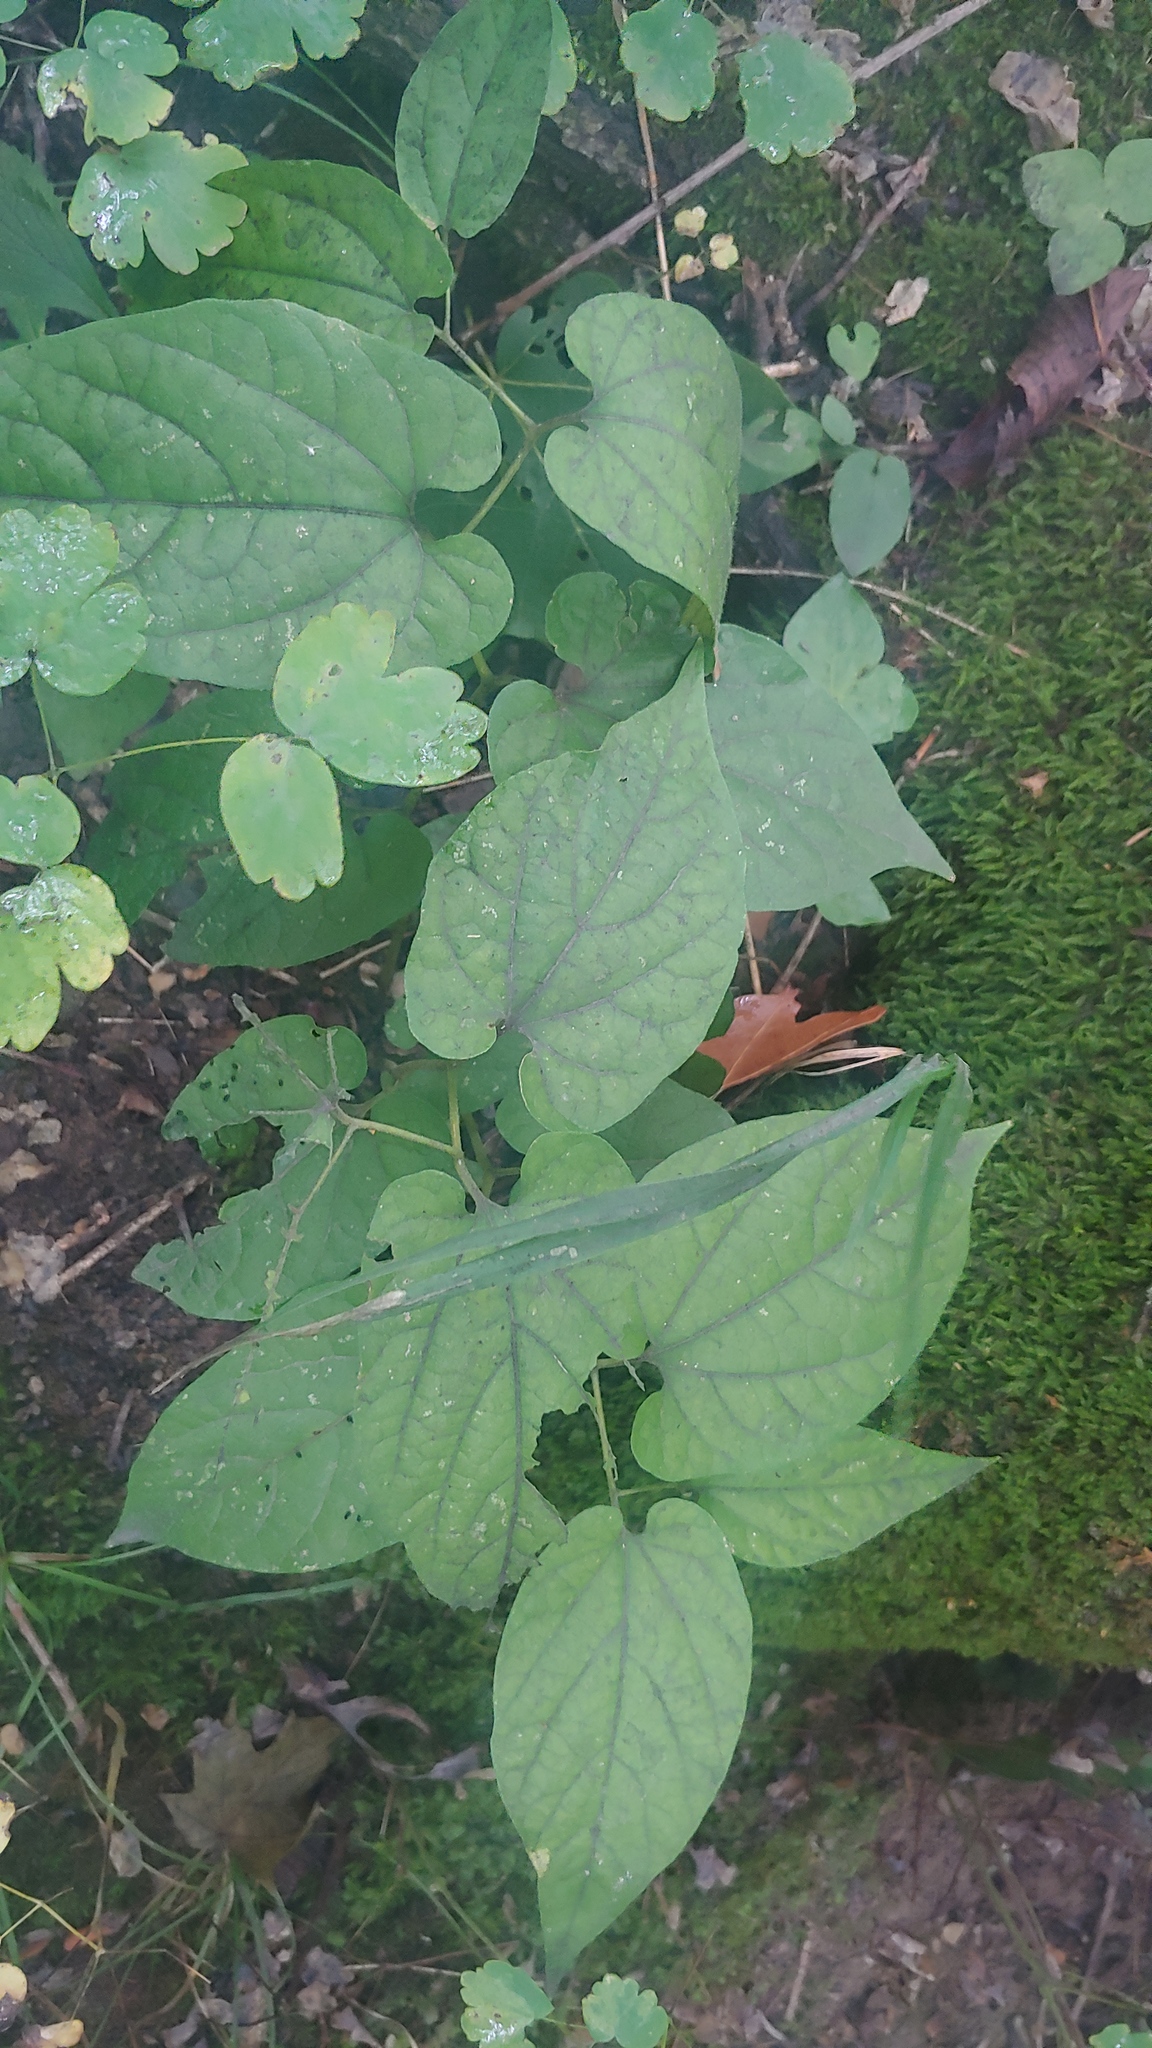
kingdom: Plantae
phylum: Tracheophyta
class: Magnoliopsida
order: Piperales
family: Aristolochiaceae
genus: Endodeca
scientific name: Endodeca serpentaria
